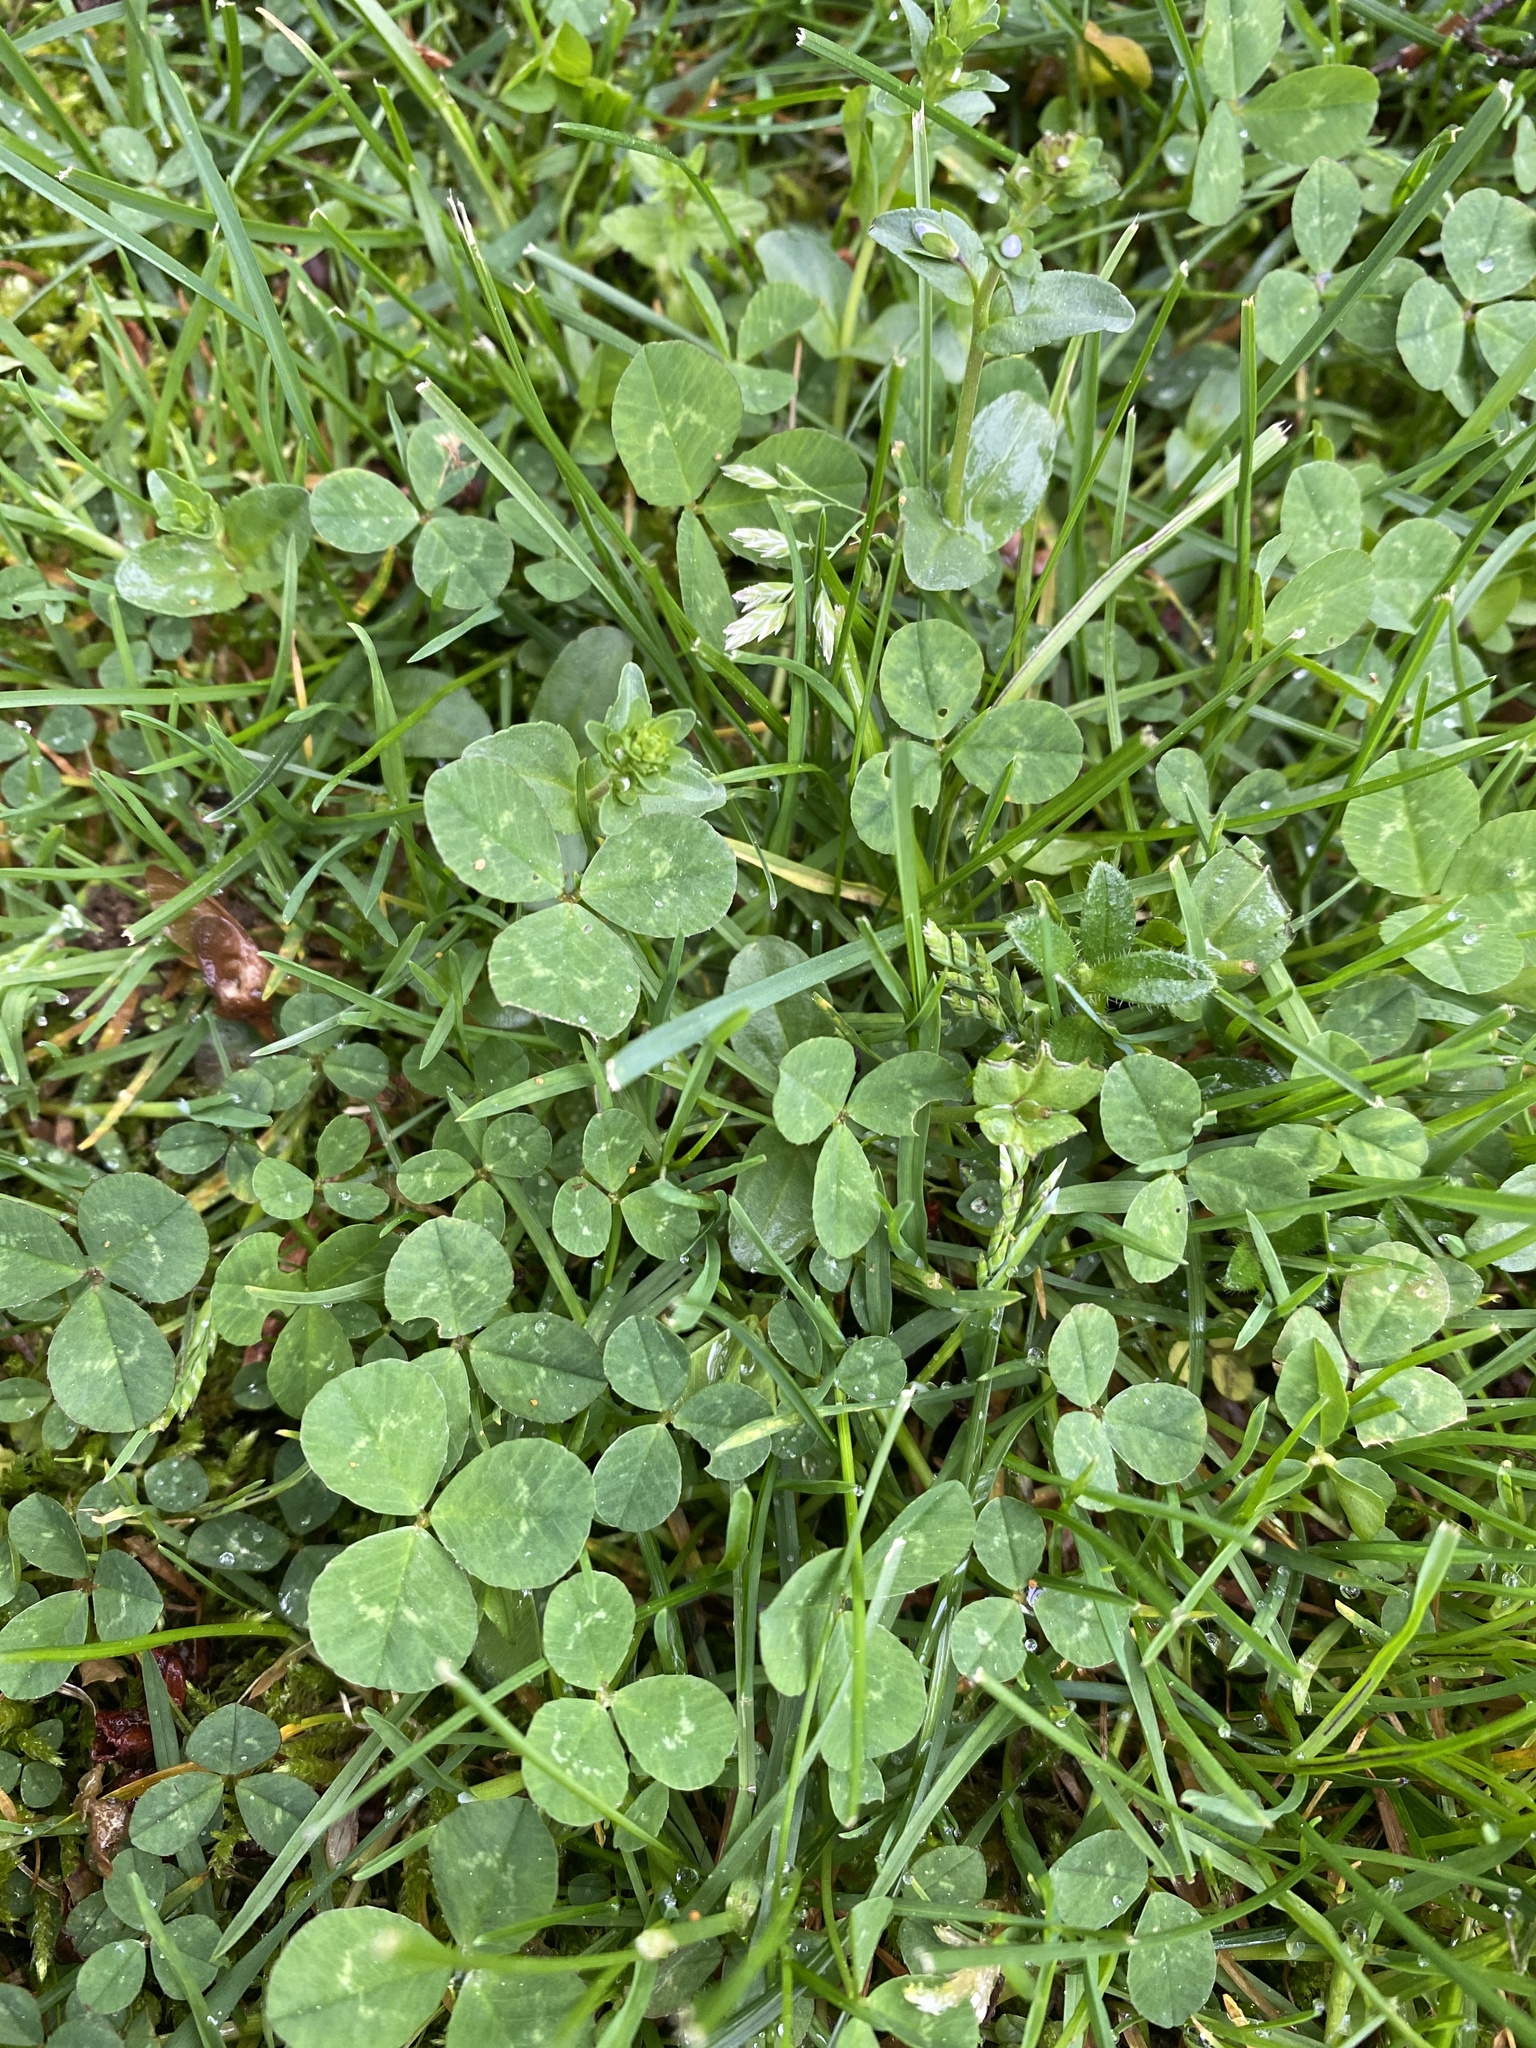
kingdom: Plantae
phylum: Tracheophyta
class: Magnoliopsida
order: Fabales
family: Fabaceae
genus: Trifolium
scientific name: Trifolium repens
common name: White clover
